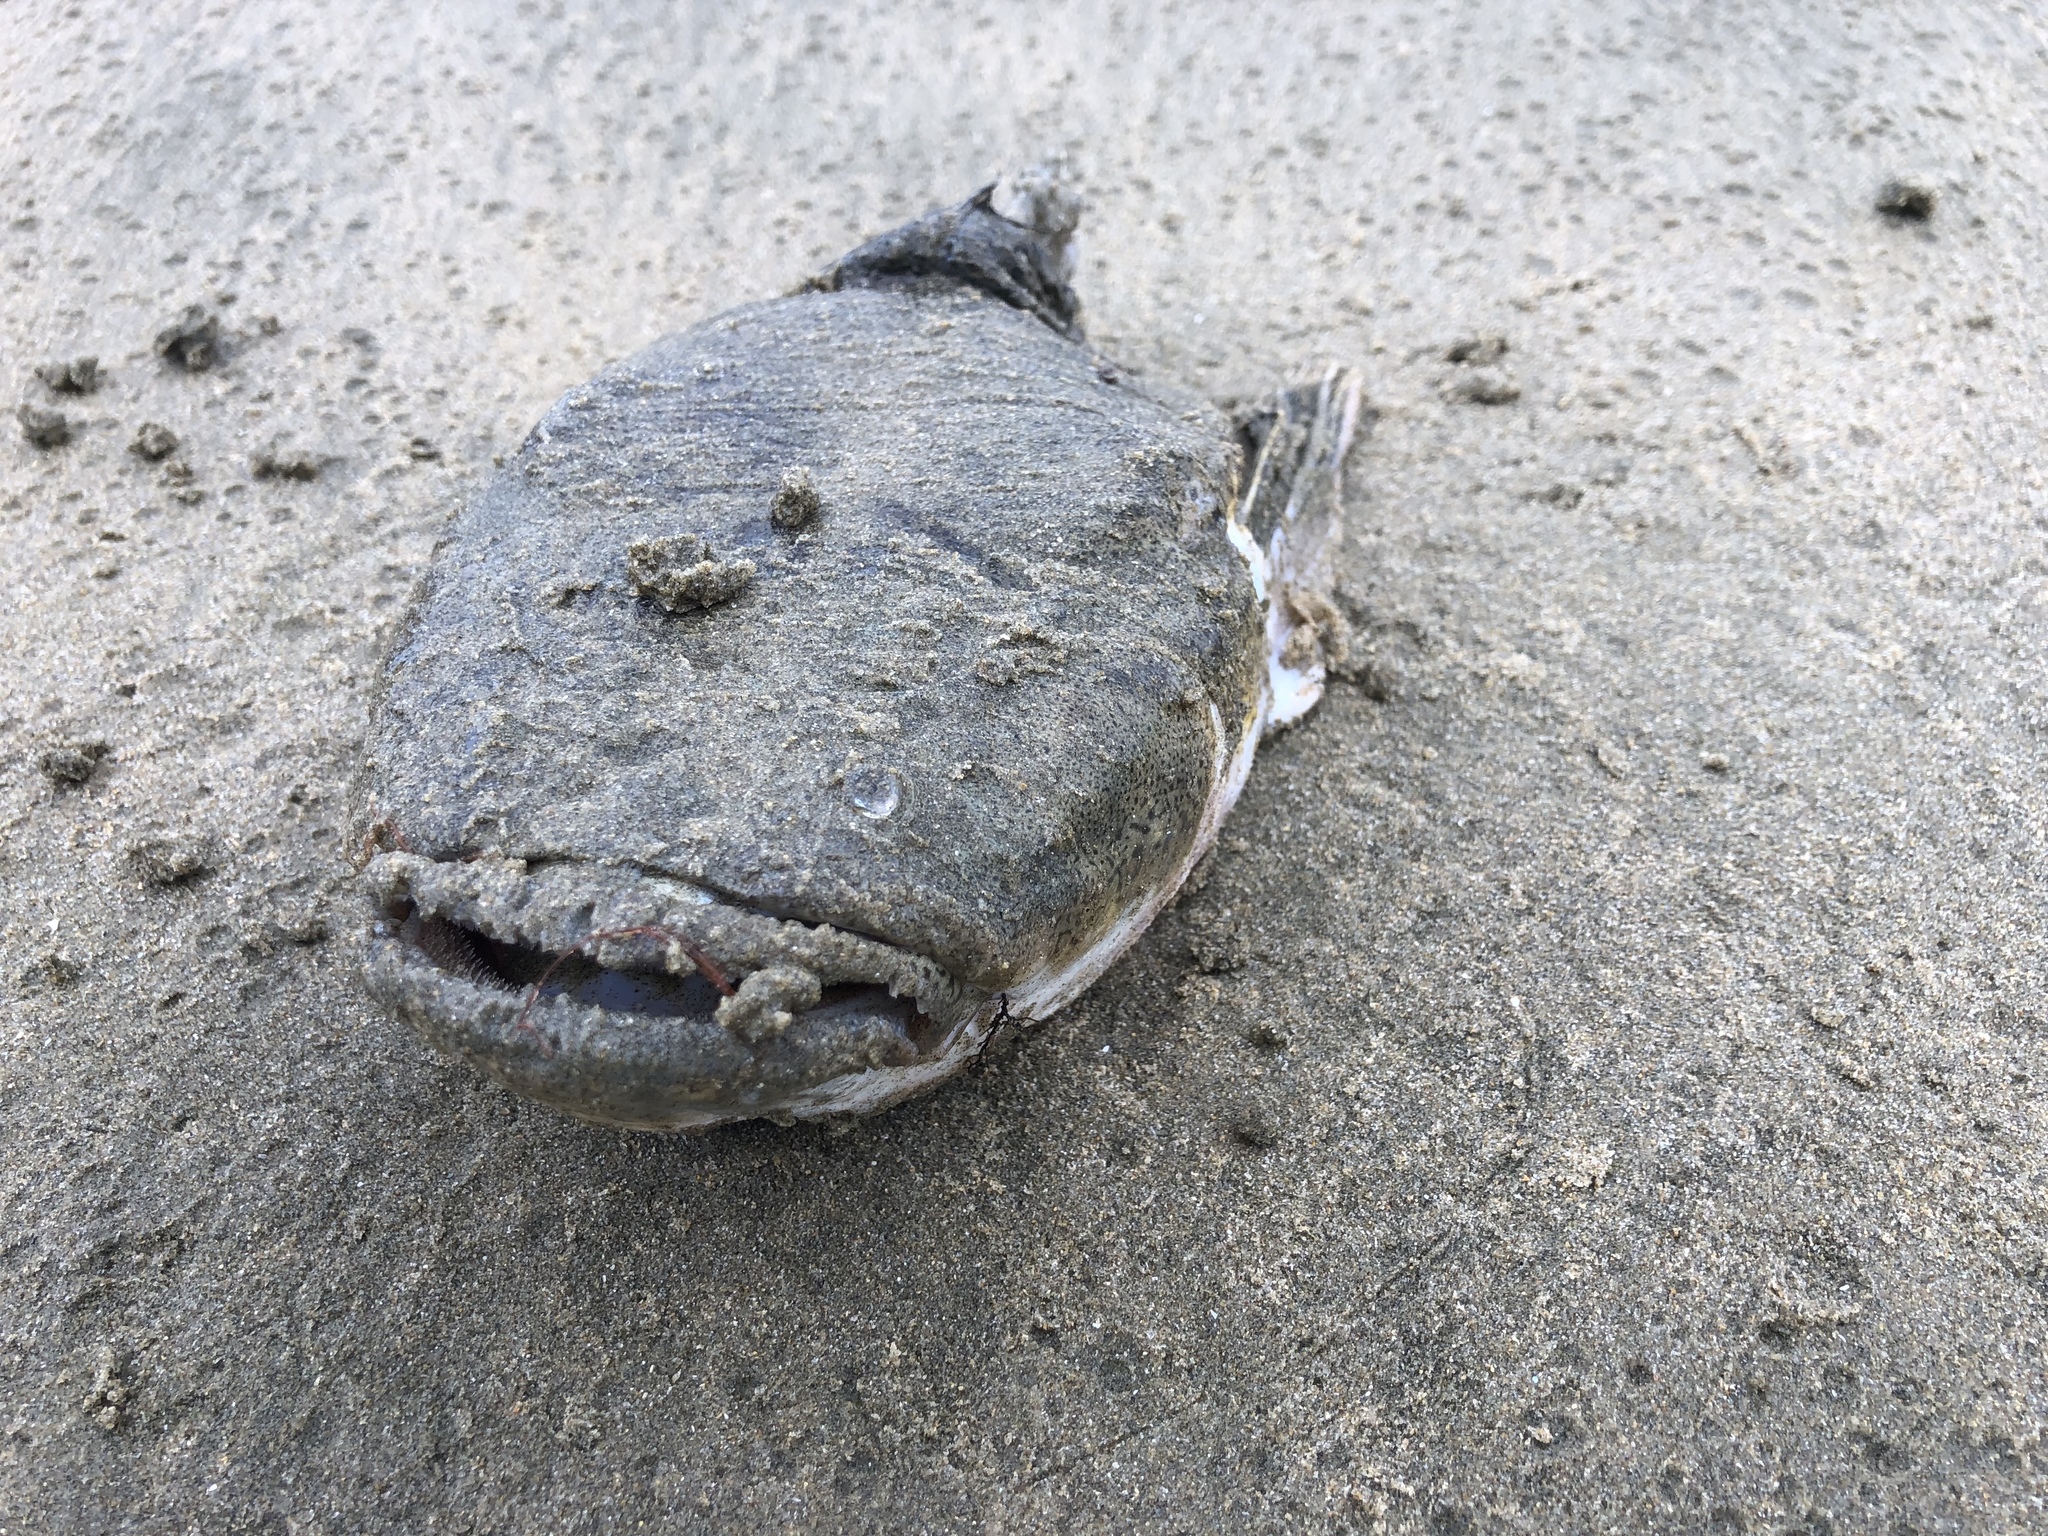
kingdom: Animalia
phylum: Chordata
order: Perciformes
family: Leptoscopidae
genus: Leptoscopus
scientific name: Leptoscopus macropygus
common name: Estuary stargazer
